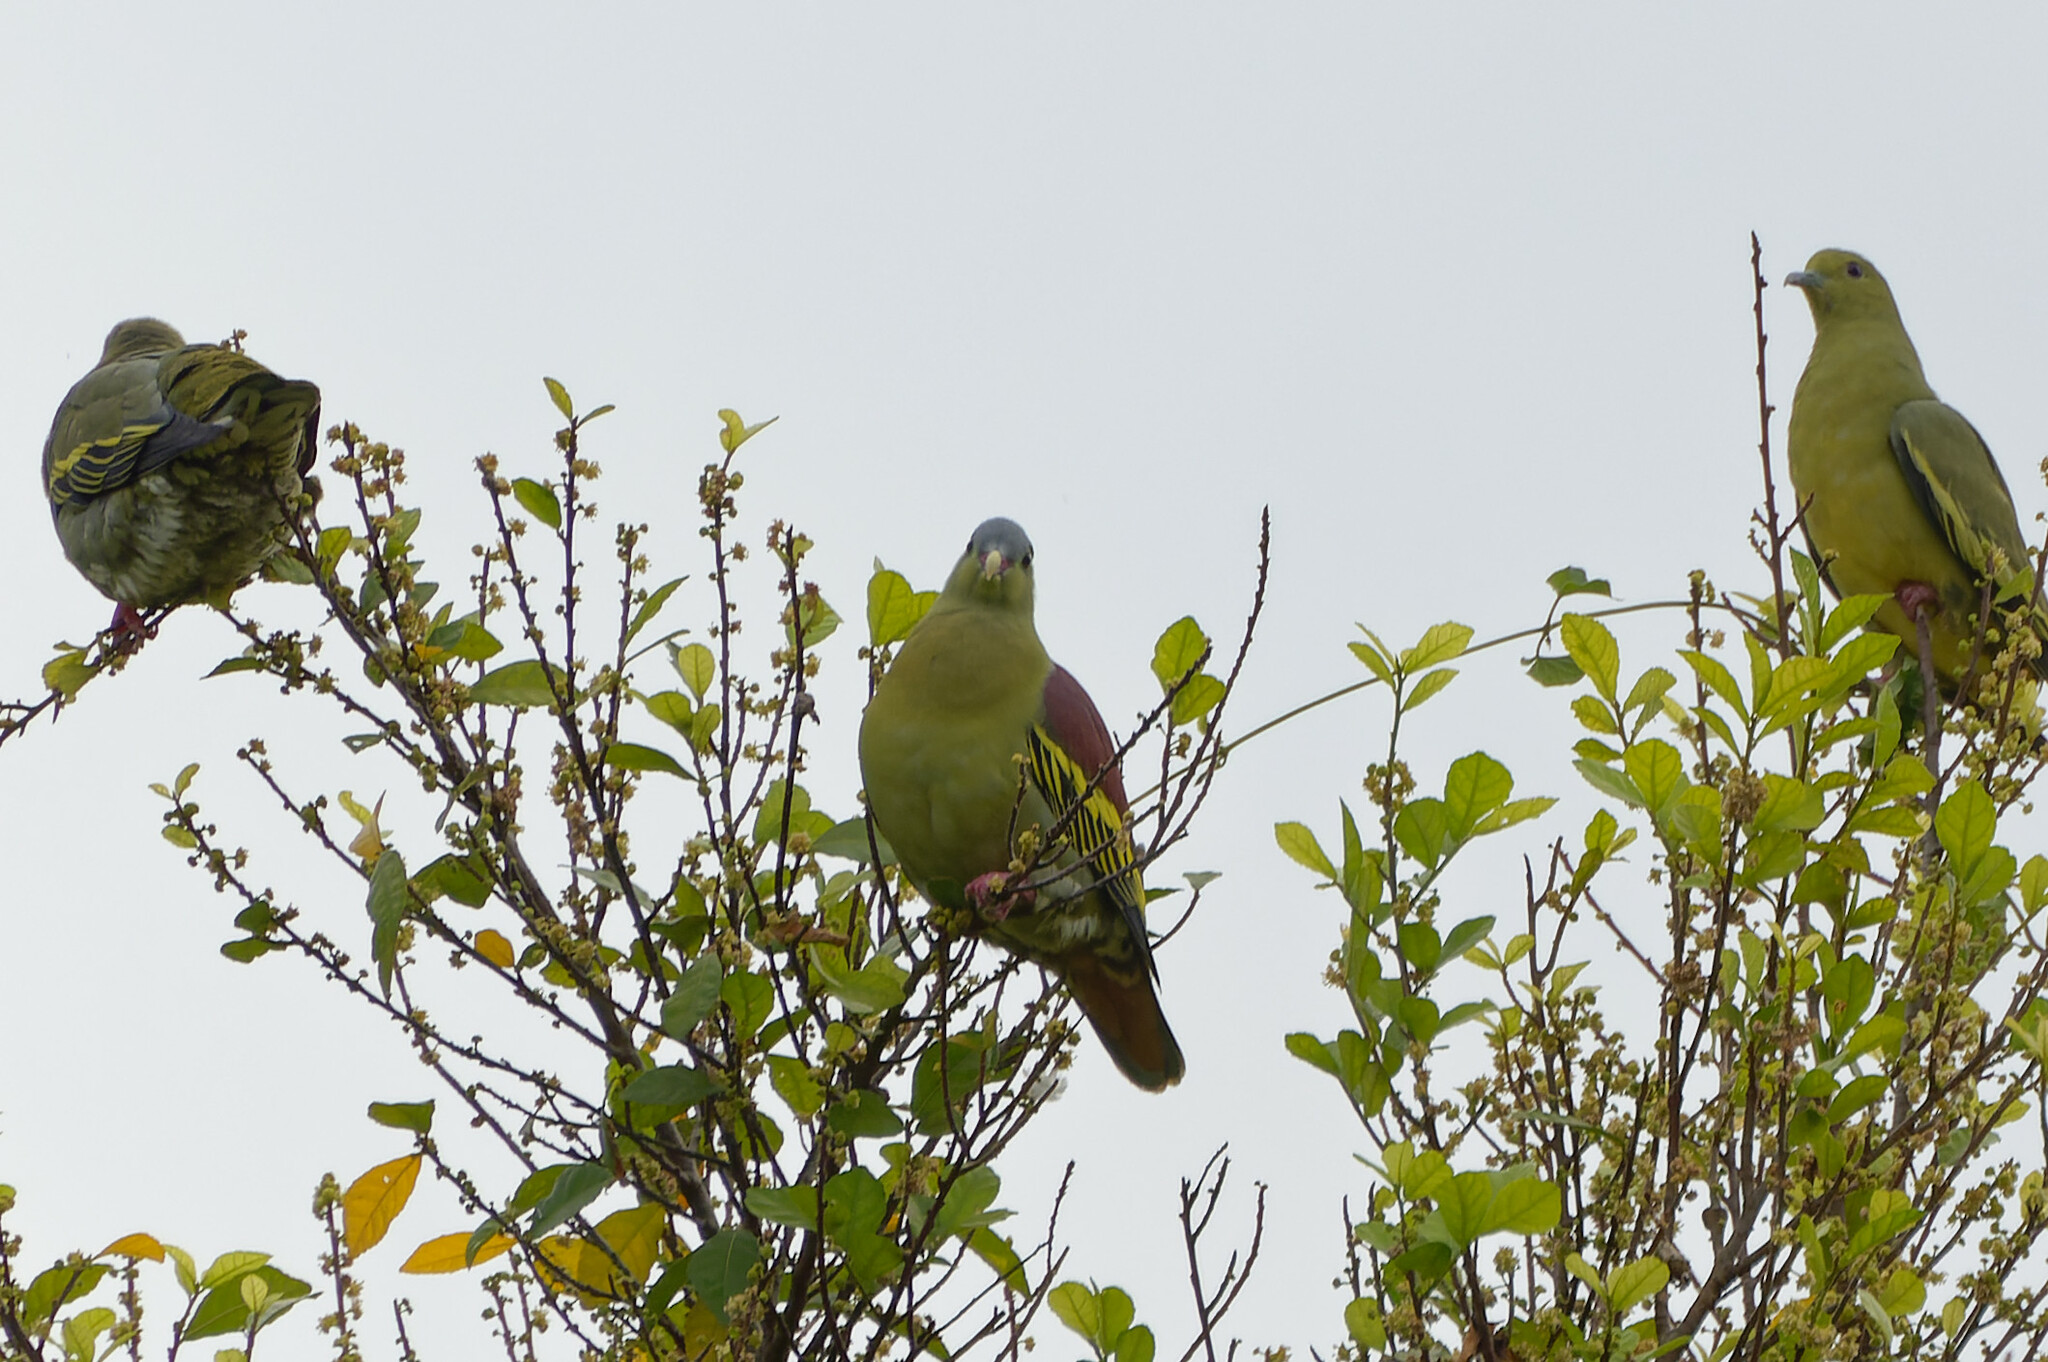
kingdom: Animalia
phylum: Chordata
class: Aves
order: Columbiformes
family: Columbidae
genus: Treron
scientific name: Treron curvirostra
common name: Thick-billed green pigeon
